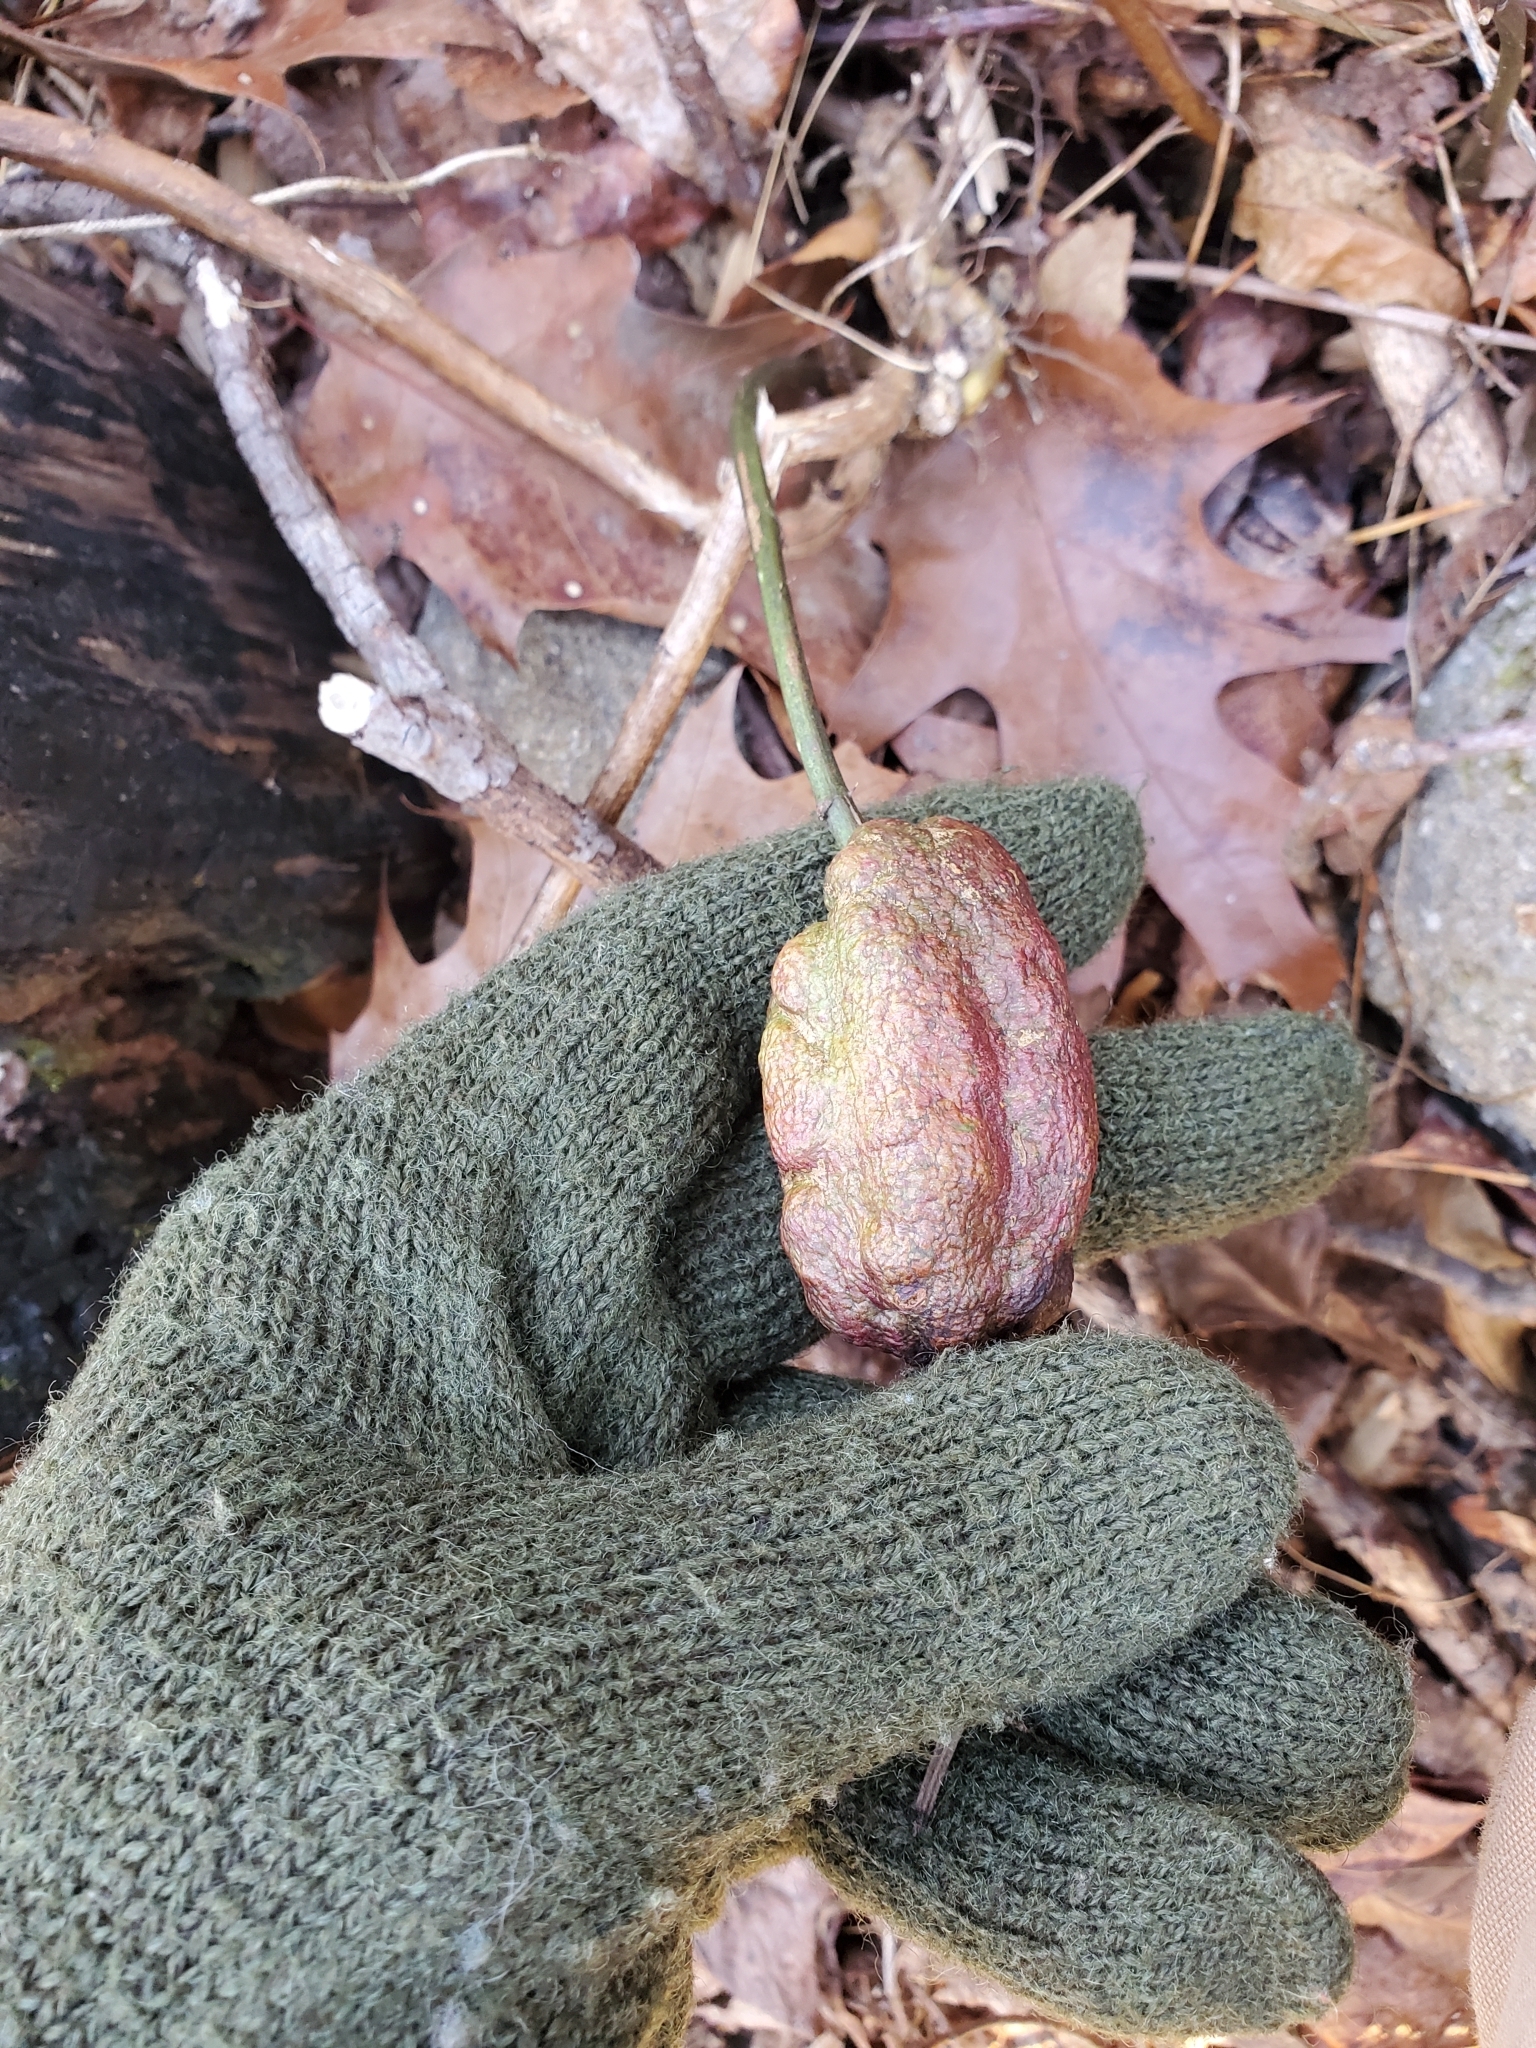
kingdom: Animalia
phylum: Arthropoda
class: Insecta
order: Hymenoptera
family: Cynipidae
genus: Diastrophus
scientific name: Diastrophus
